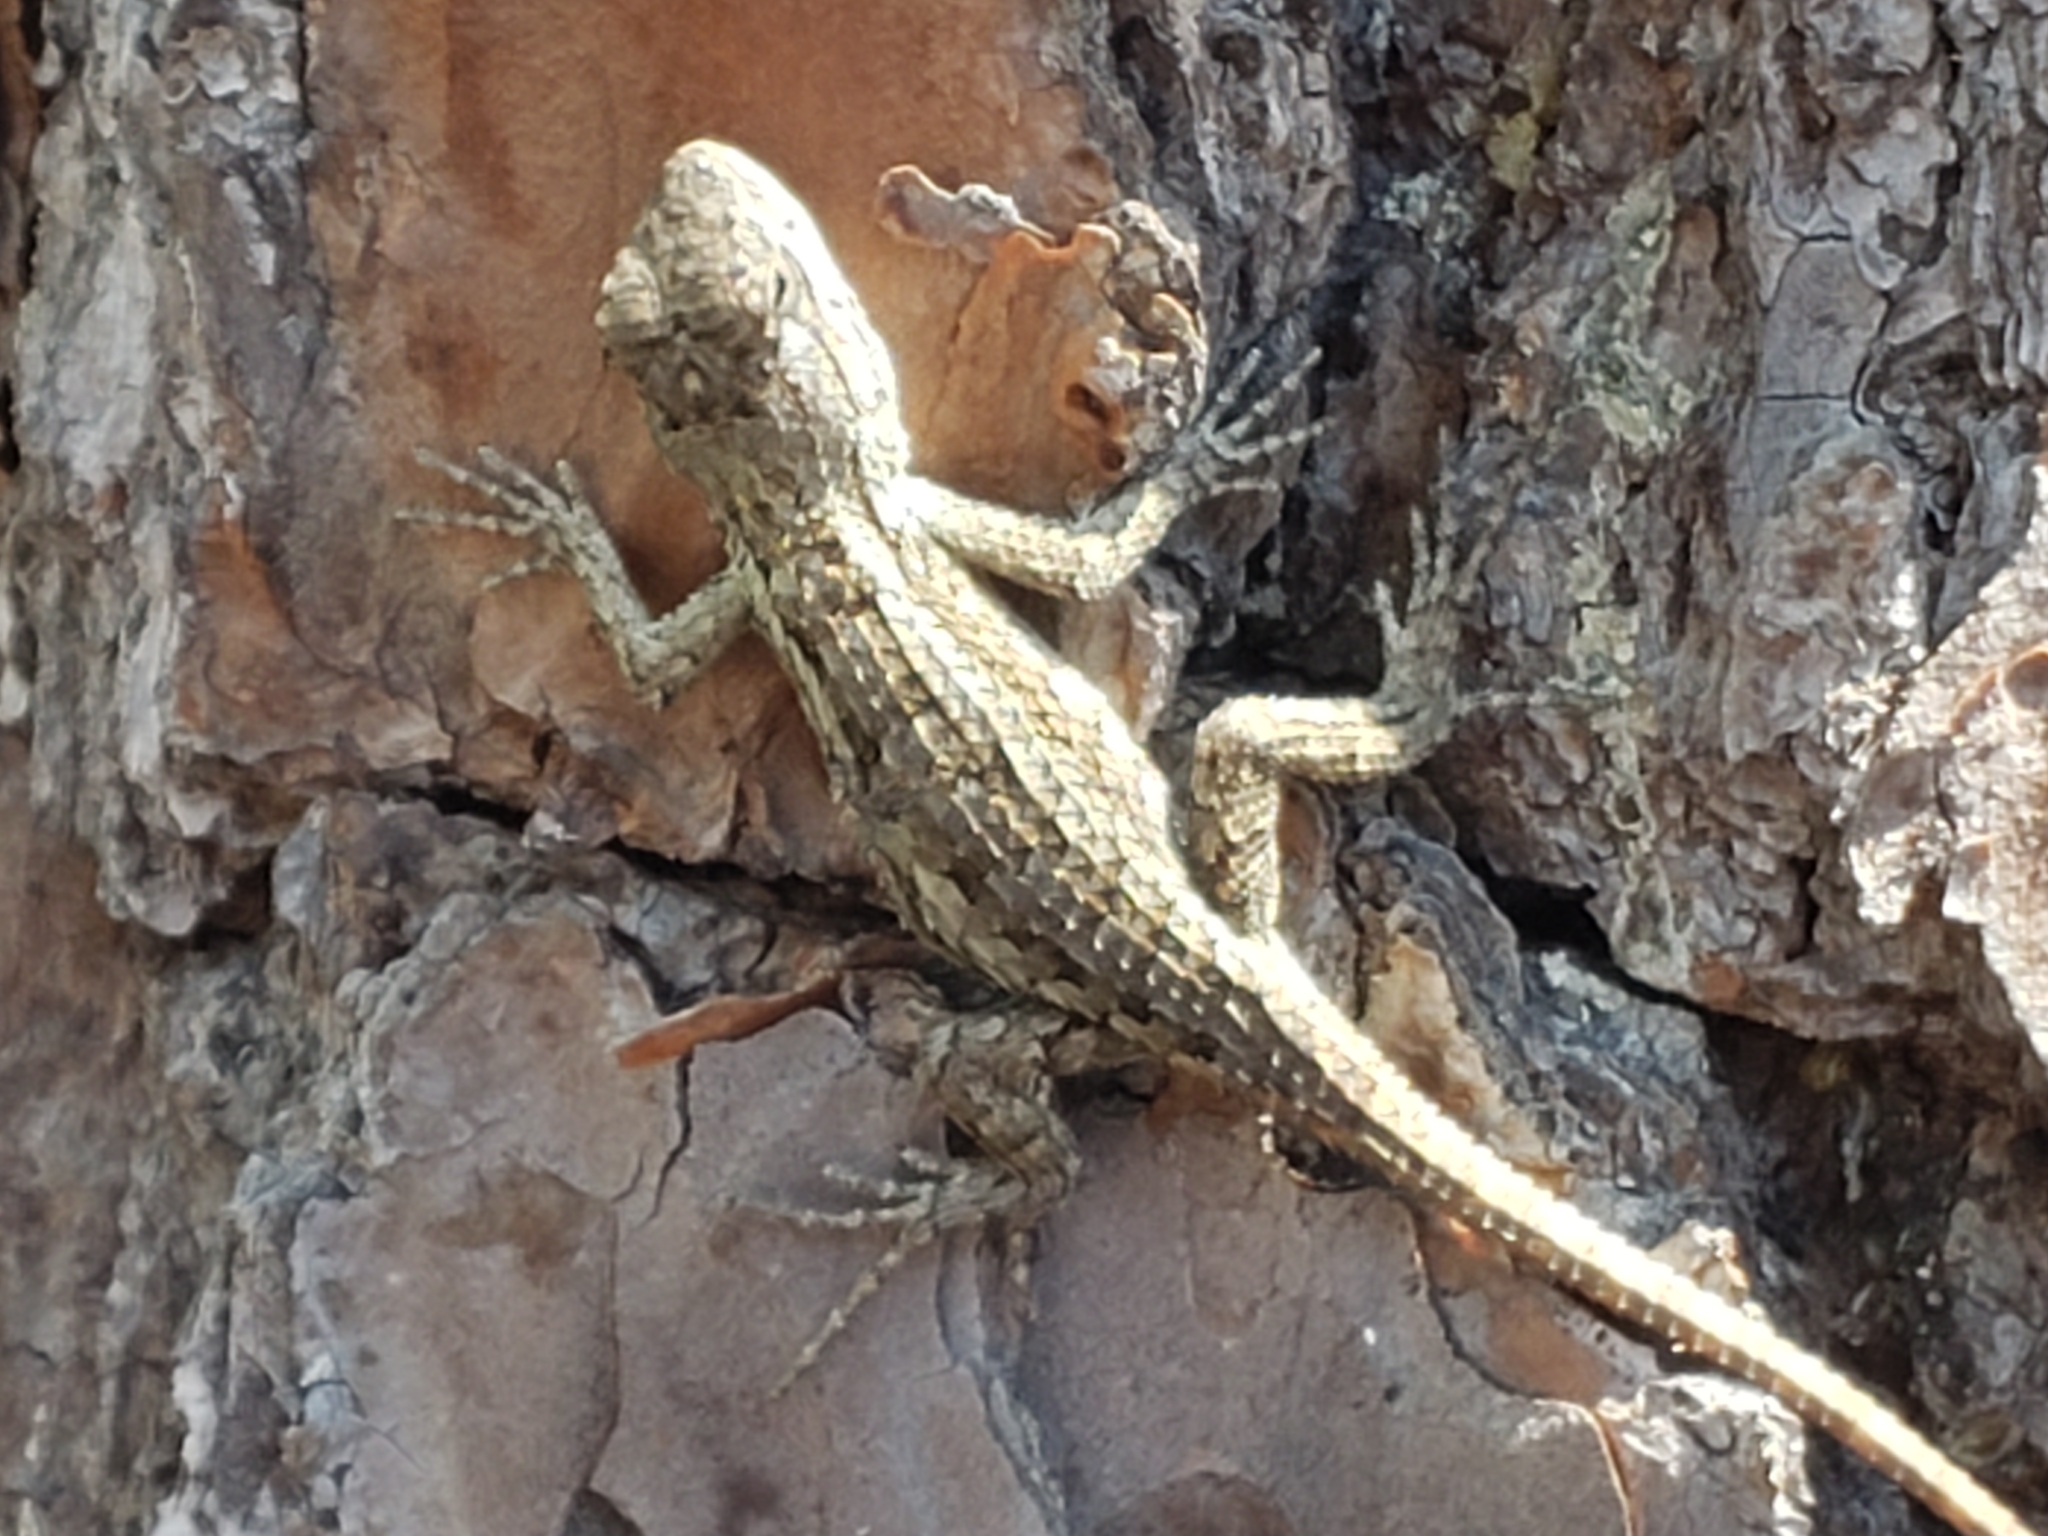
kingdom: Animalia
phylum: Chordata
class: Squamata
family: Phrynosomatidae
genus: Sceloporus
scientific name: Sceloporus olivaceus
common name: Texas spiny lizard
